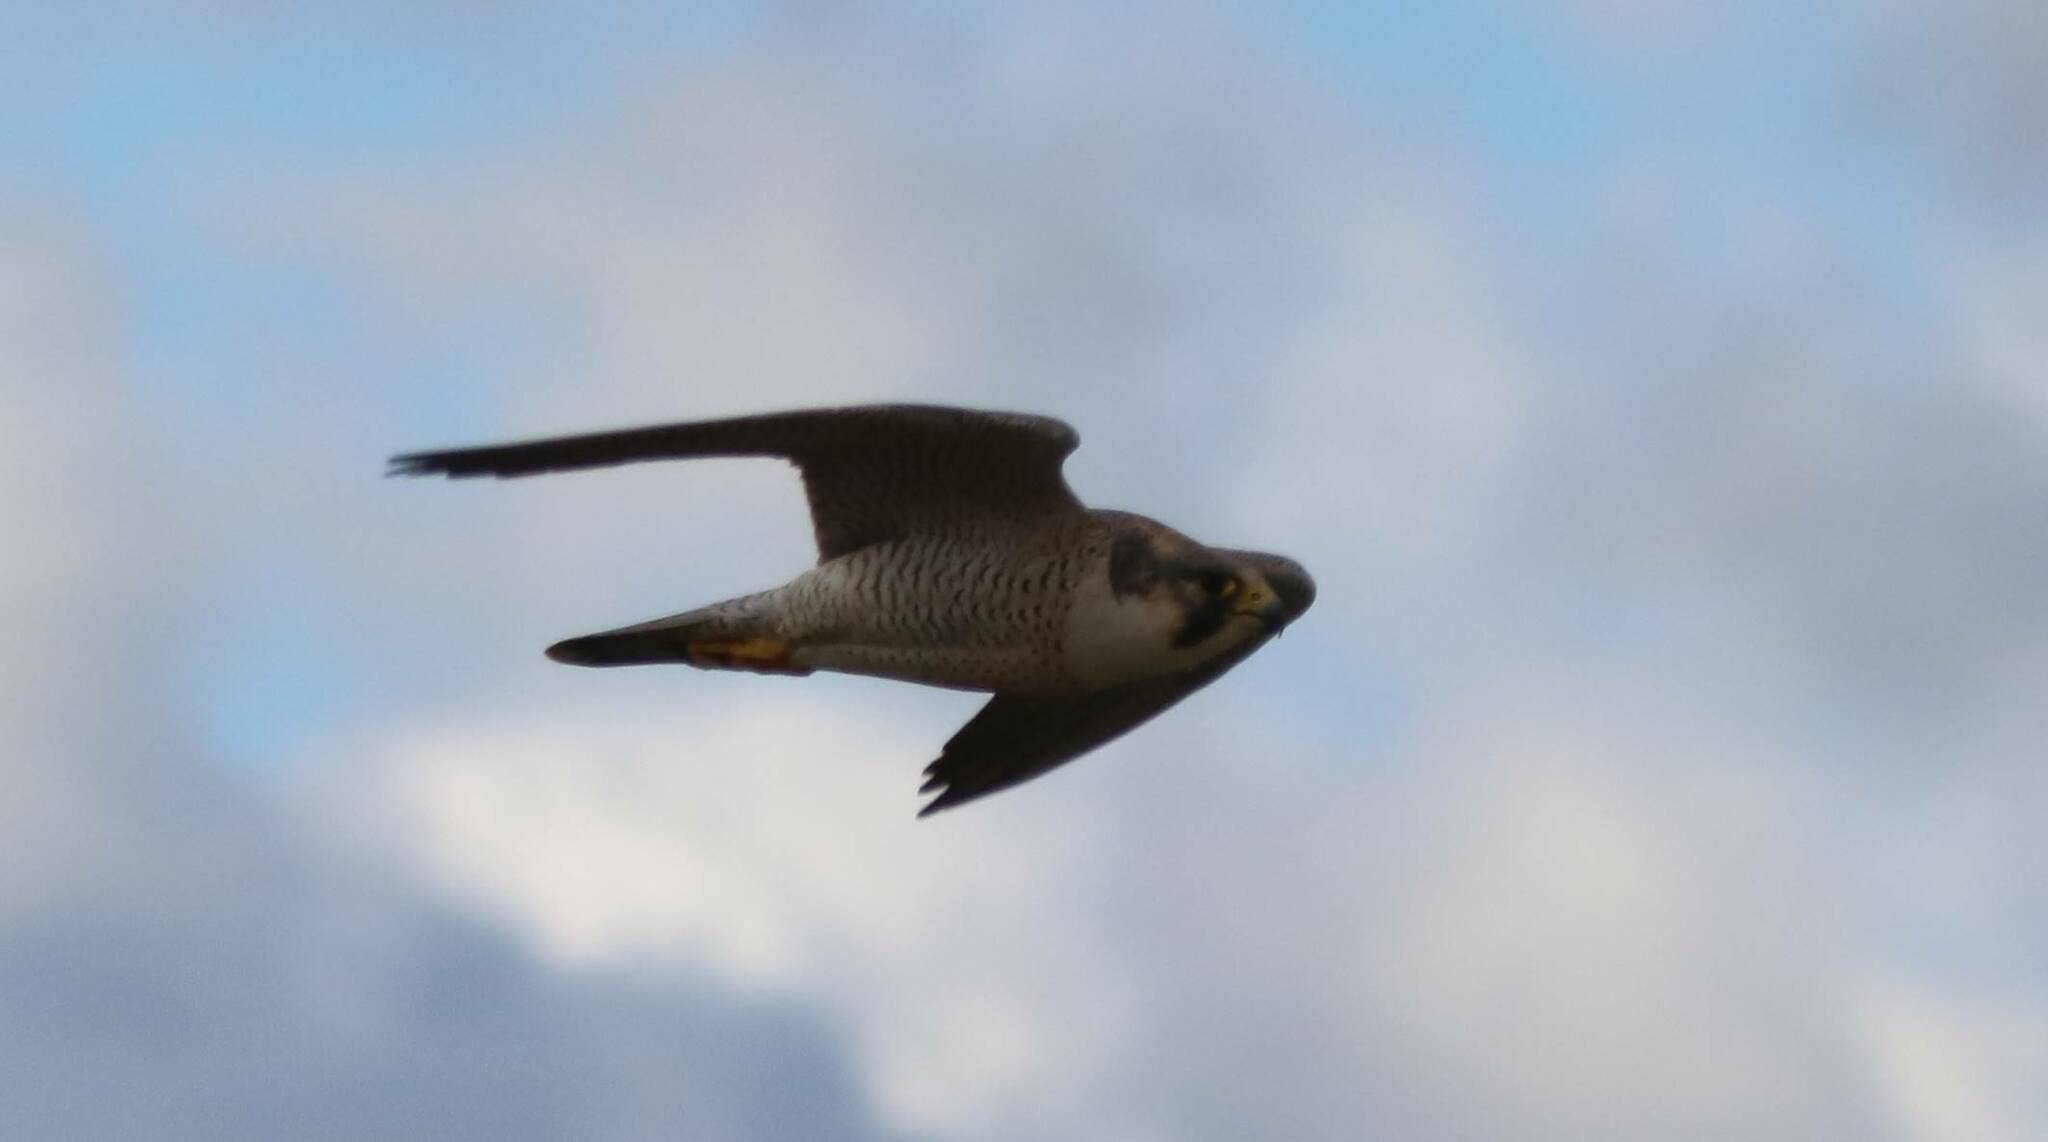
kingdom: Animalia
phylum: Chordata
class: Aves
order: Falconiformes
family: Falconidae
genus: Falco
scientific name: Falco peregrinus
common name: Peregrine falcon
